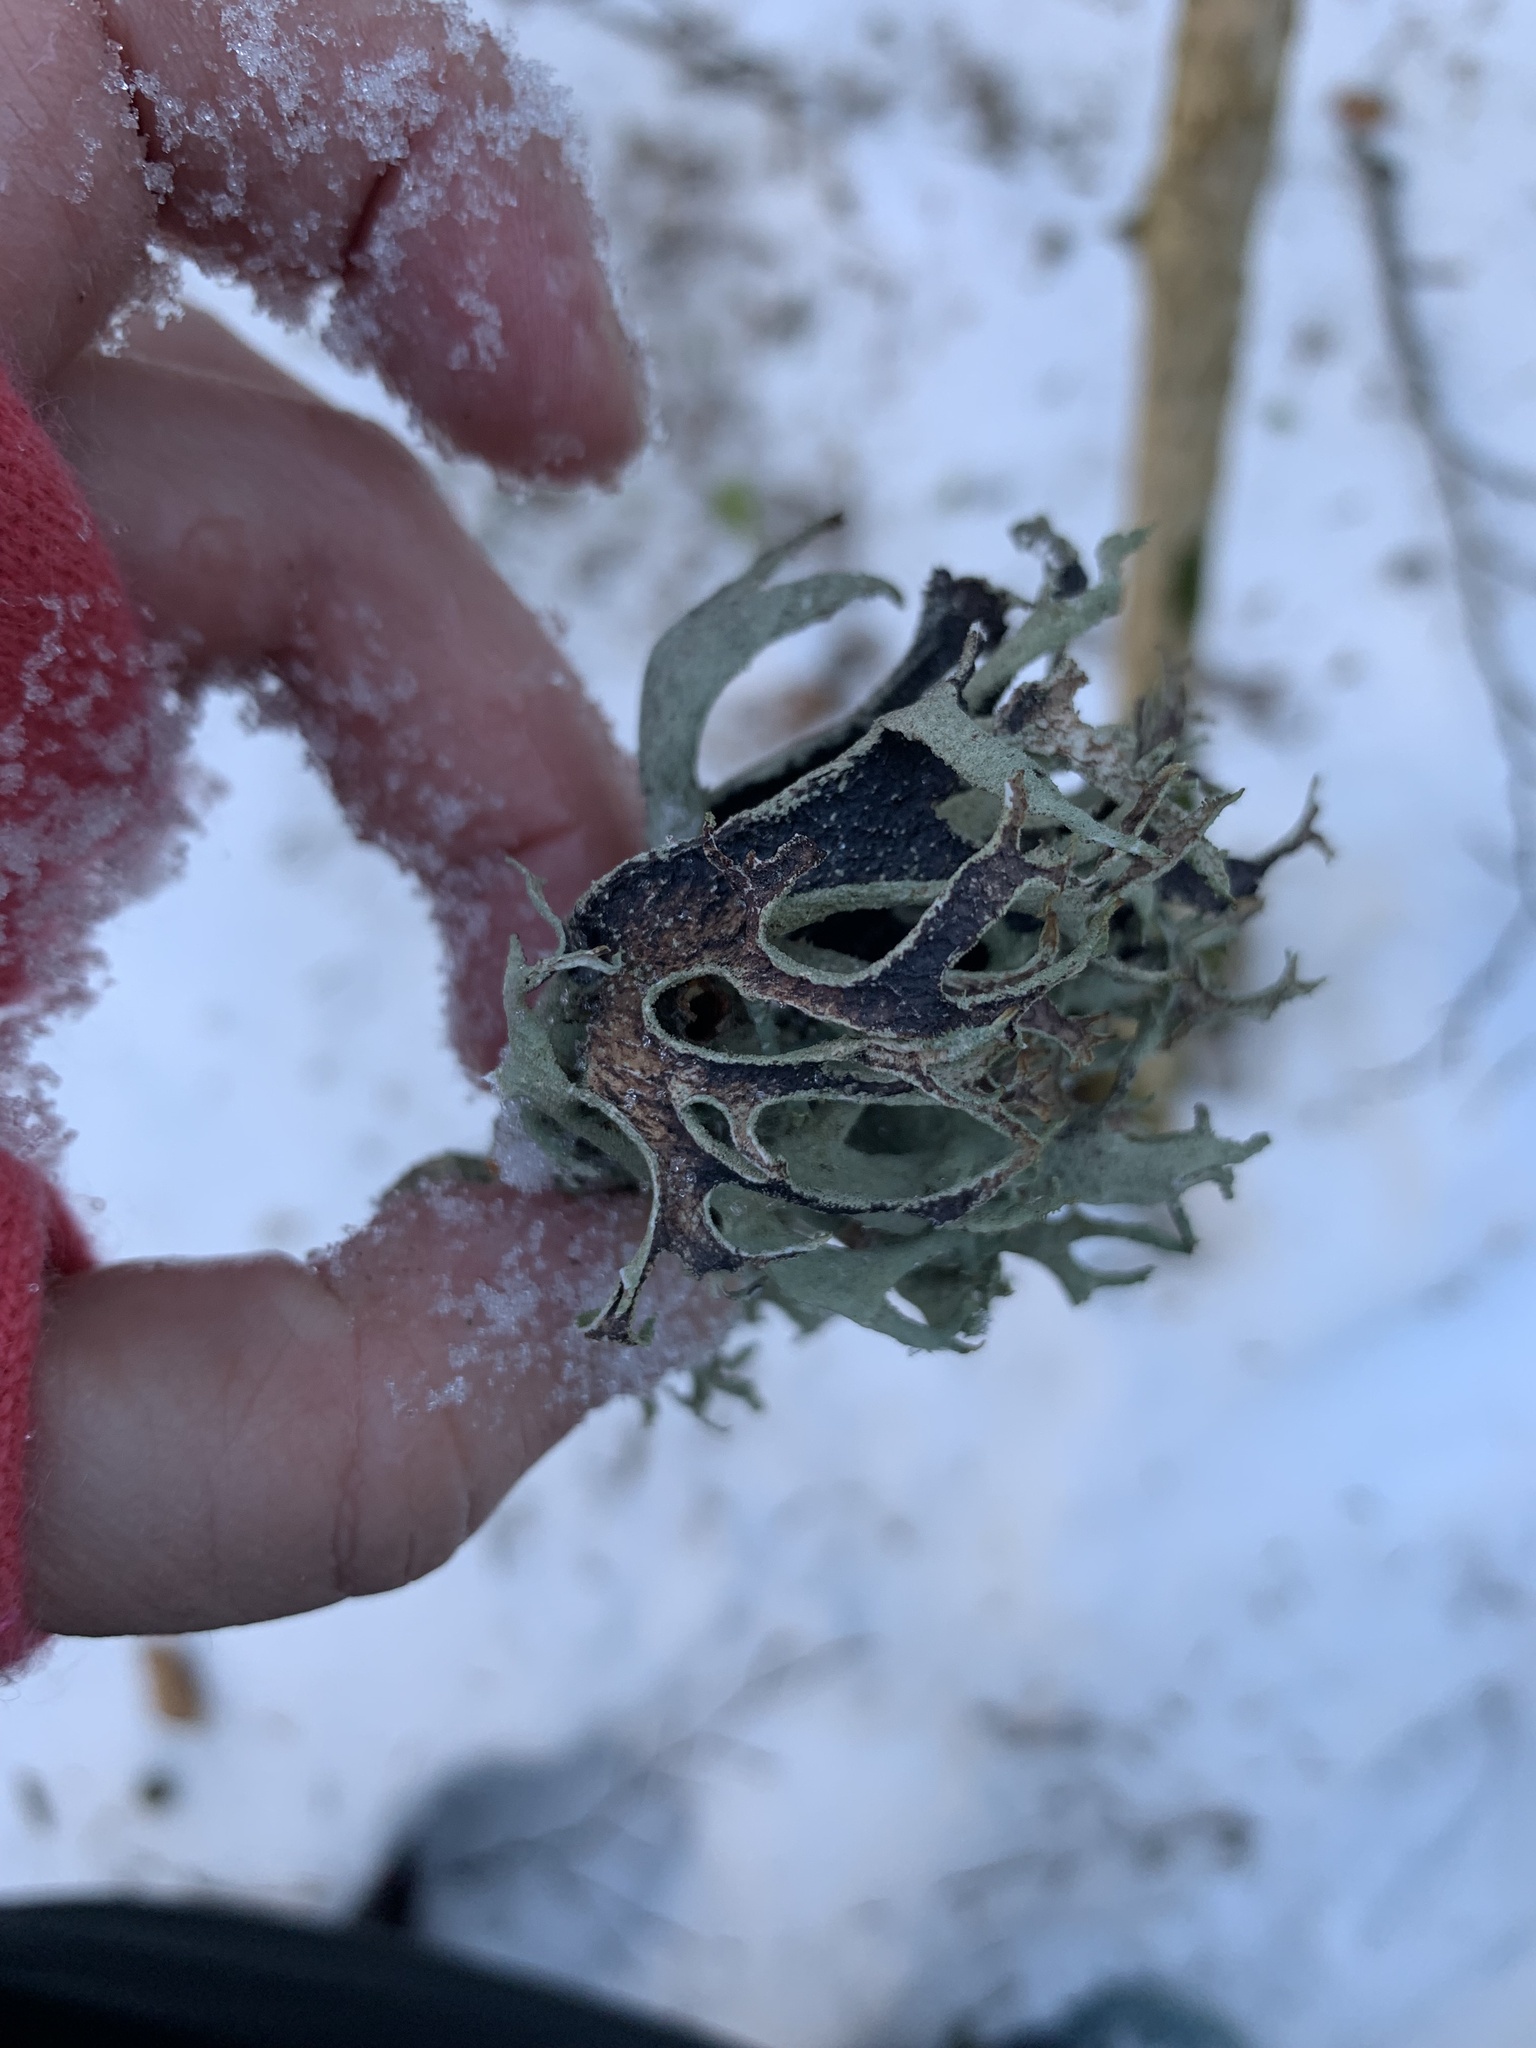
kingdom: Fungi
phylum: Ascomycota
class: Lecanoromycetes
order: Lecanorales
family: Parmeliaceae
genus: Pseudevernia
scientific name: Pseudevernia furfuracea
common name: Tree moss
